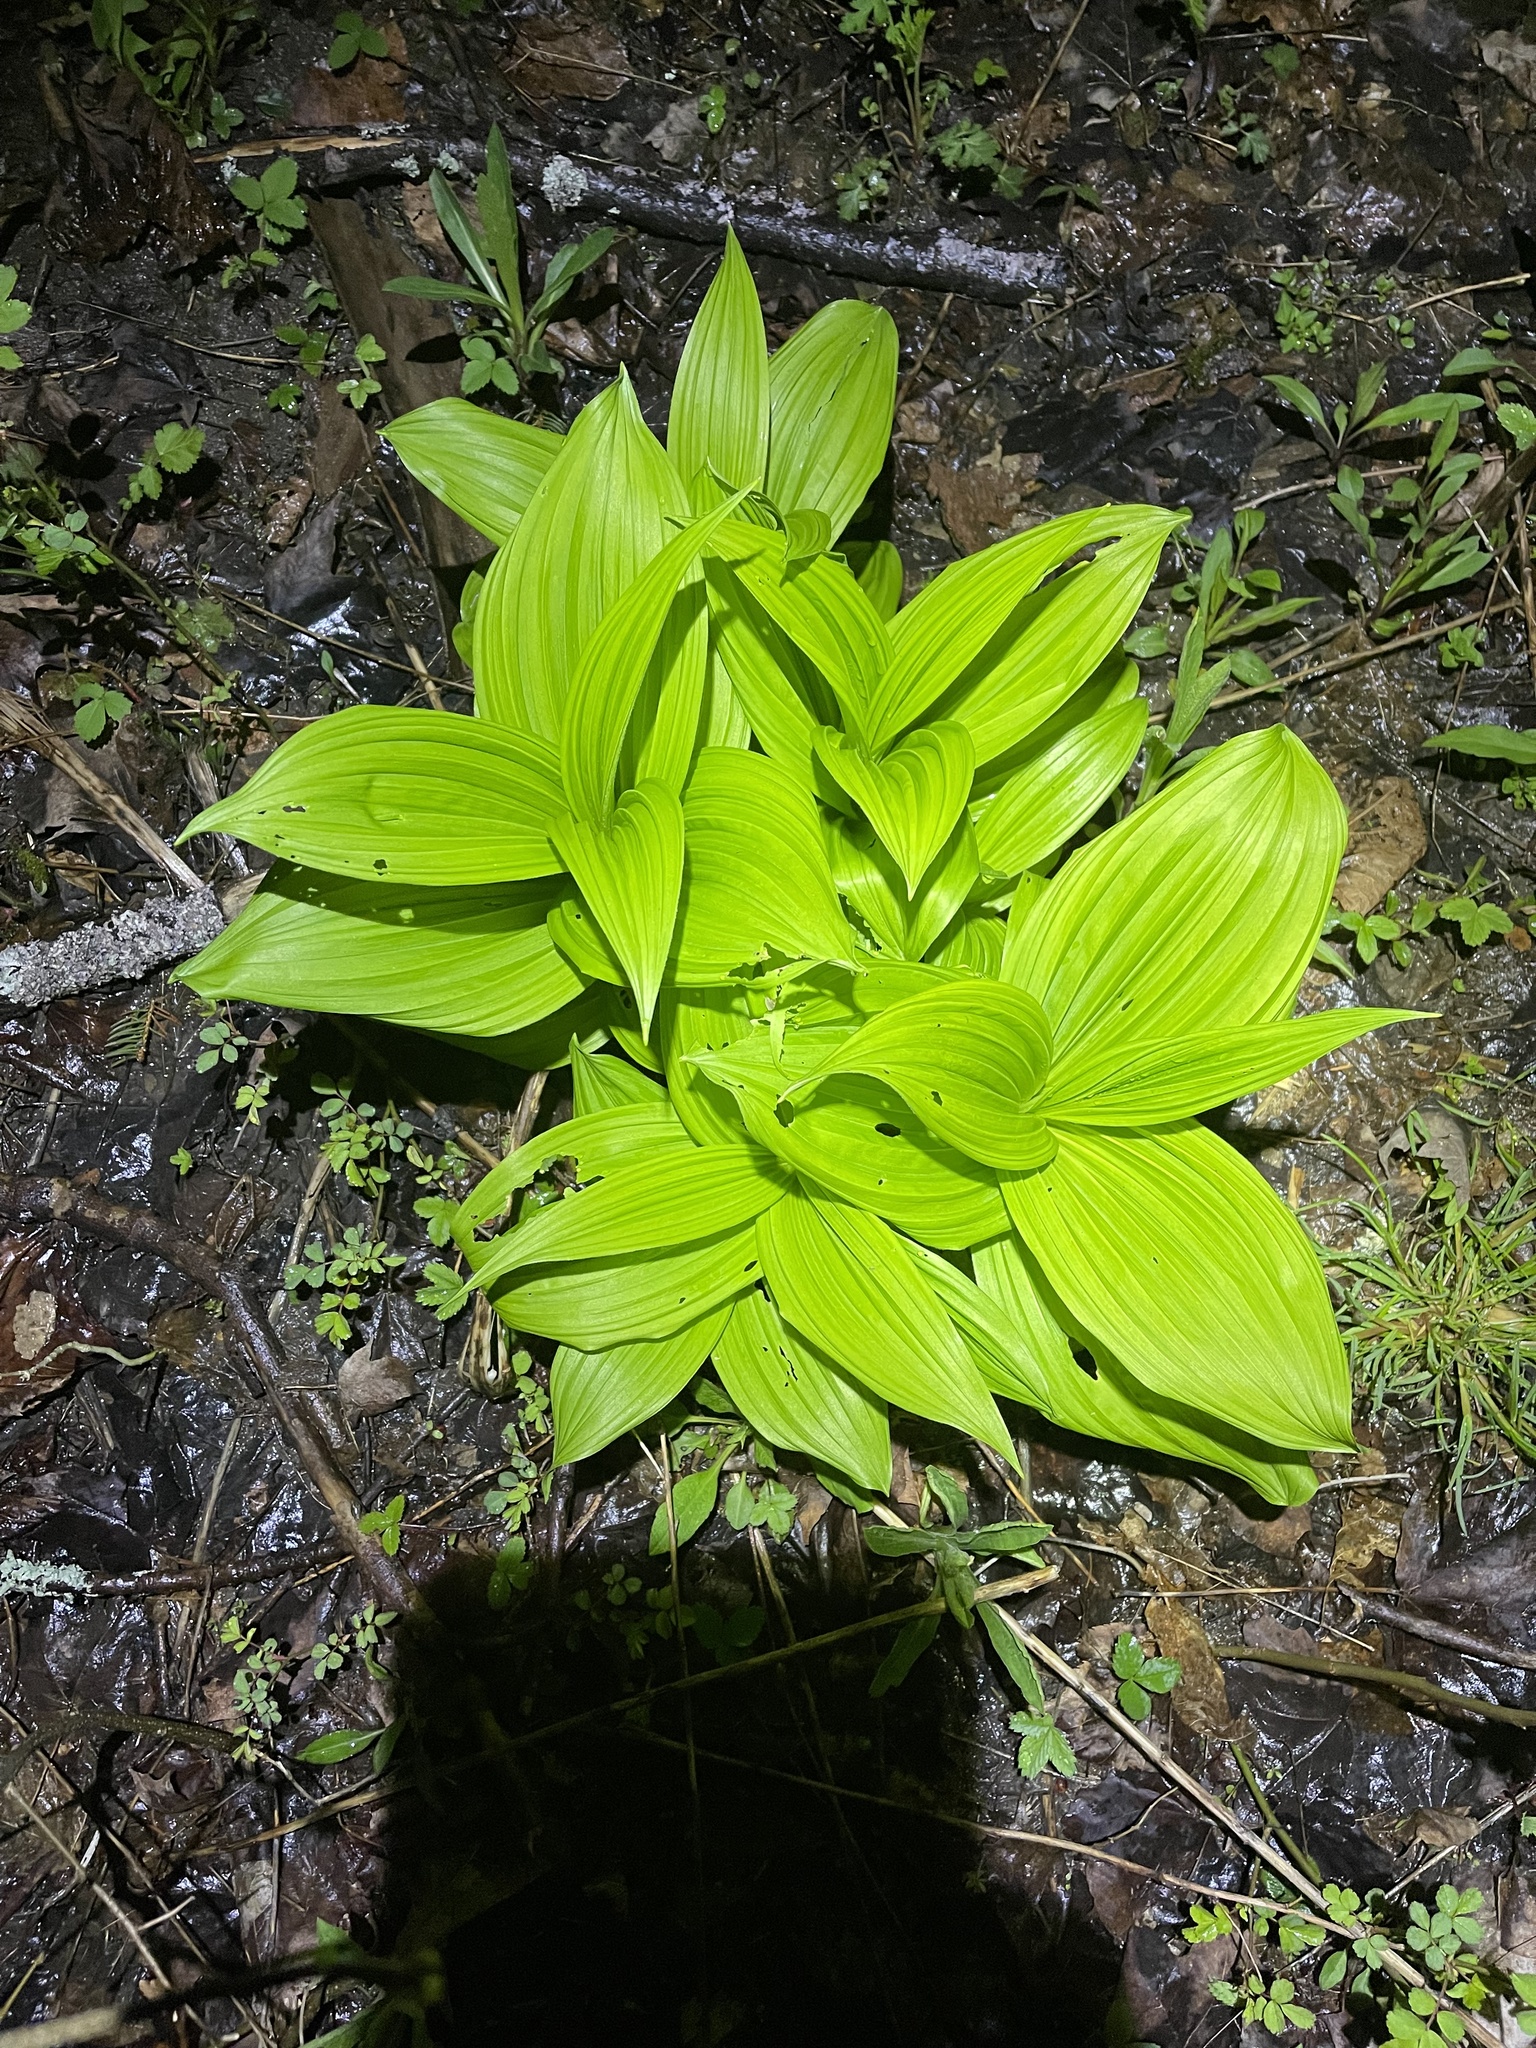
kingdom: Plantae
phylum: Tracheophyta
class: Liliopsida
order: Liliales
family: Melanthiaceae
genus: Veratrum
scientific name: Veratrum viride
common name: American false hellebore
